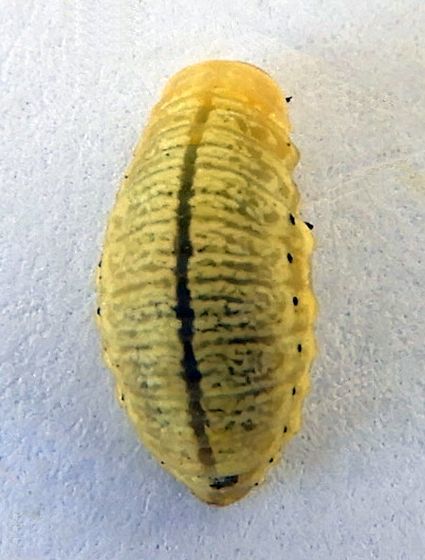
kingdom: Animalia
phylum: Arthropoda
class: Insecta
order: Coleoptera
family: Chrysomelidae
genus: Calligrapha
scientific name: Calligrapha
